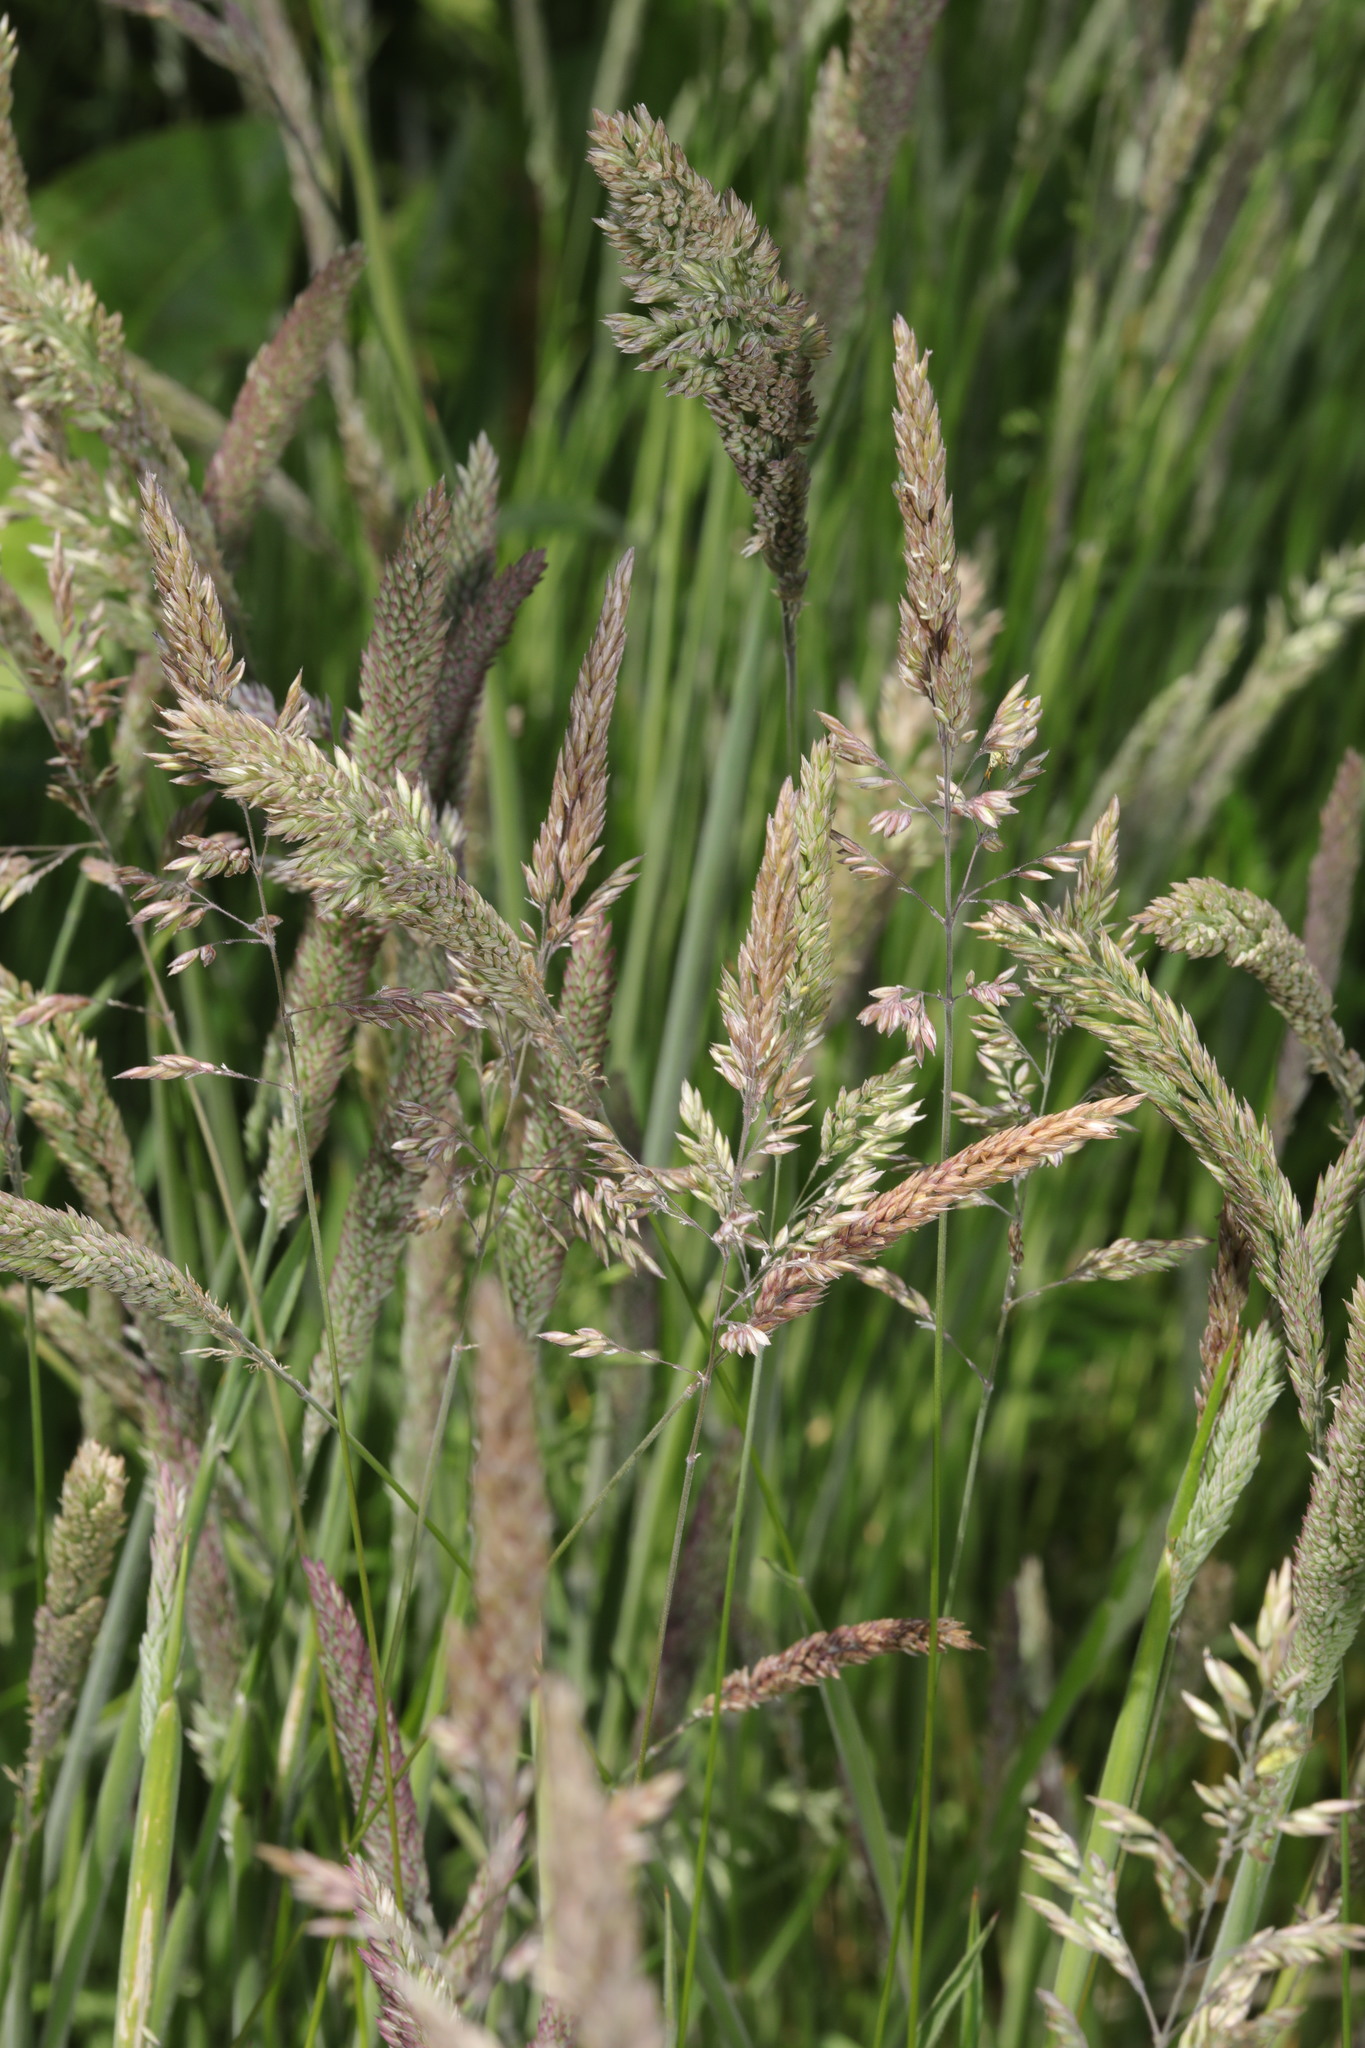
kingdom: Plantae
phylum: Tracheophyta
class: Liliopsida
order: Poales
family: Poaceae
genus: Holcus
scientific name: Holcus lanatus
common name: Yorkshire-fog
